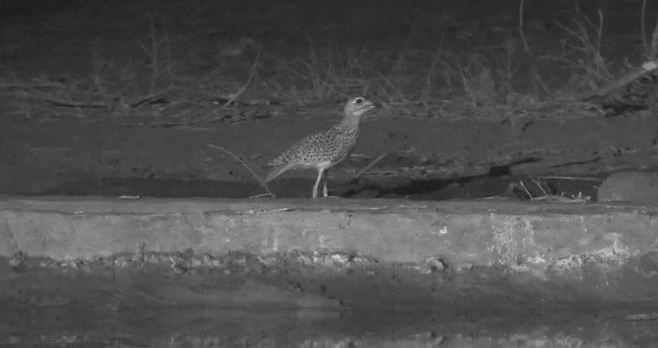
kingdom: Animalia
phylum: Chordata
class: Aves
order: Charadriiformes
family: Burhinidae
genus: Burhinus
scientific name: Burhinus capensis
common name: Spotted thick-knee
